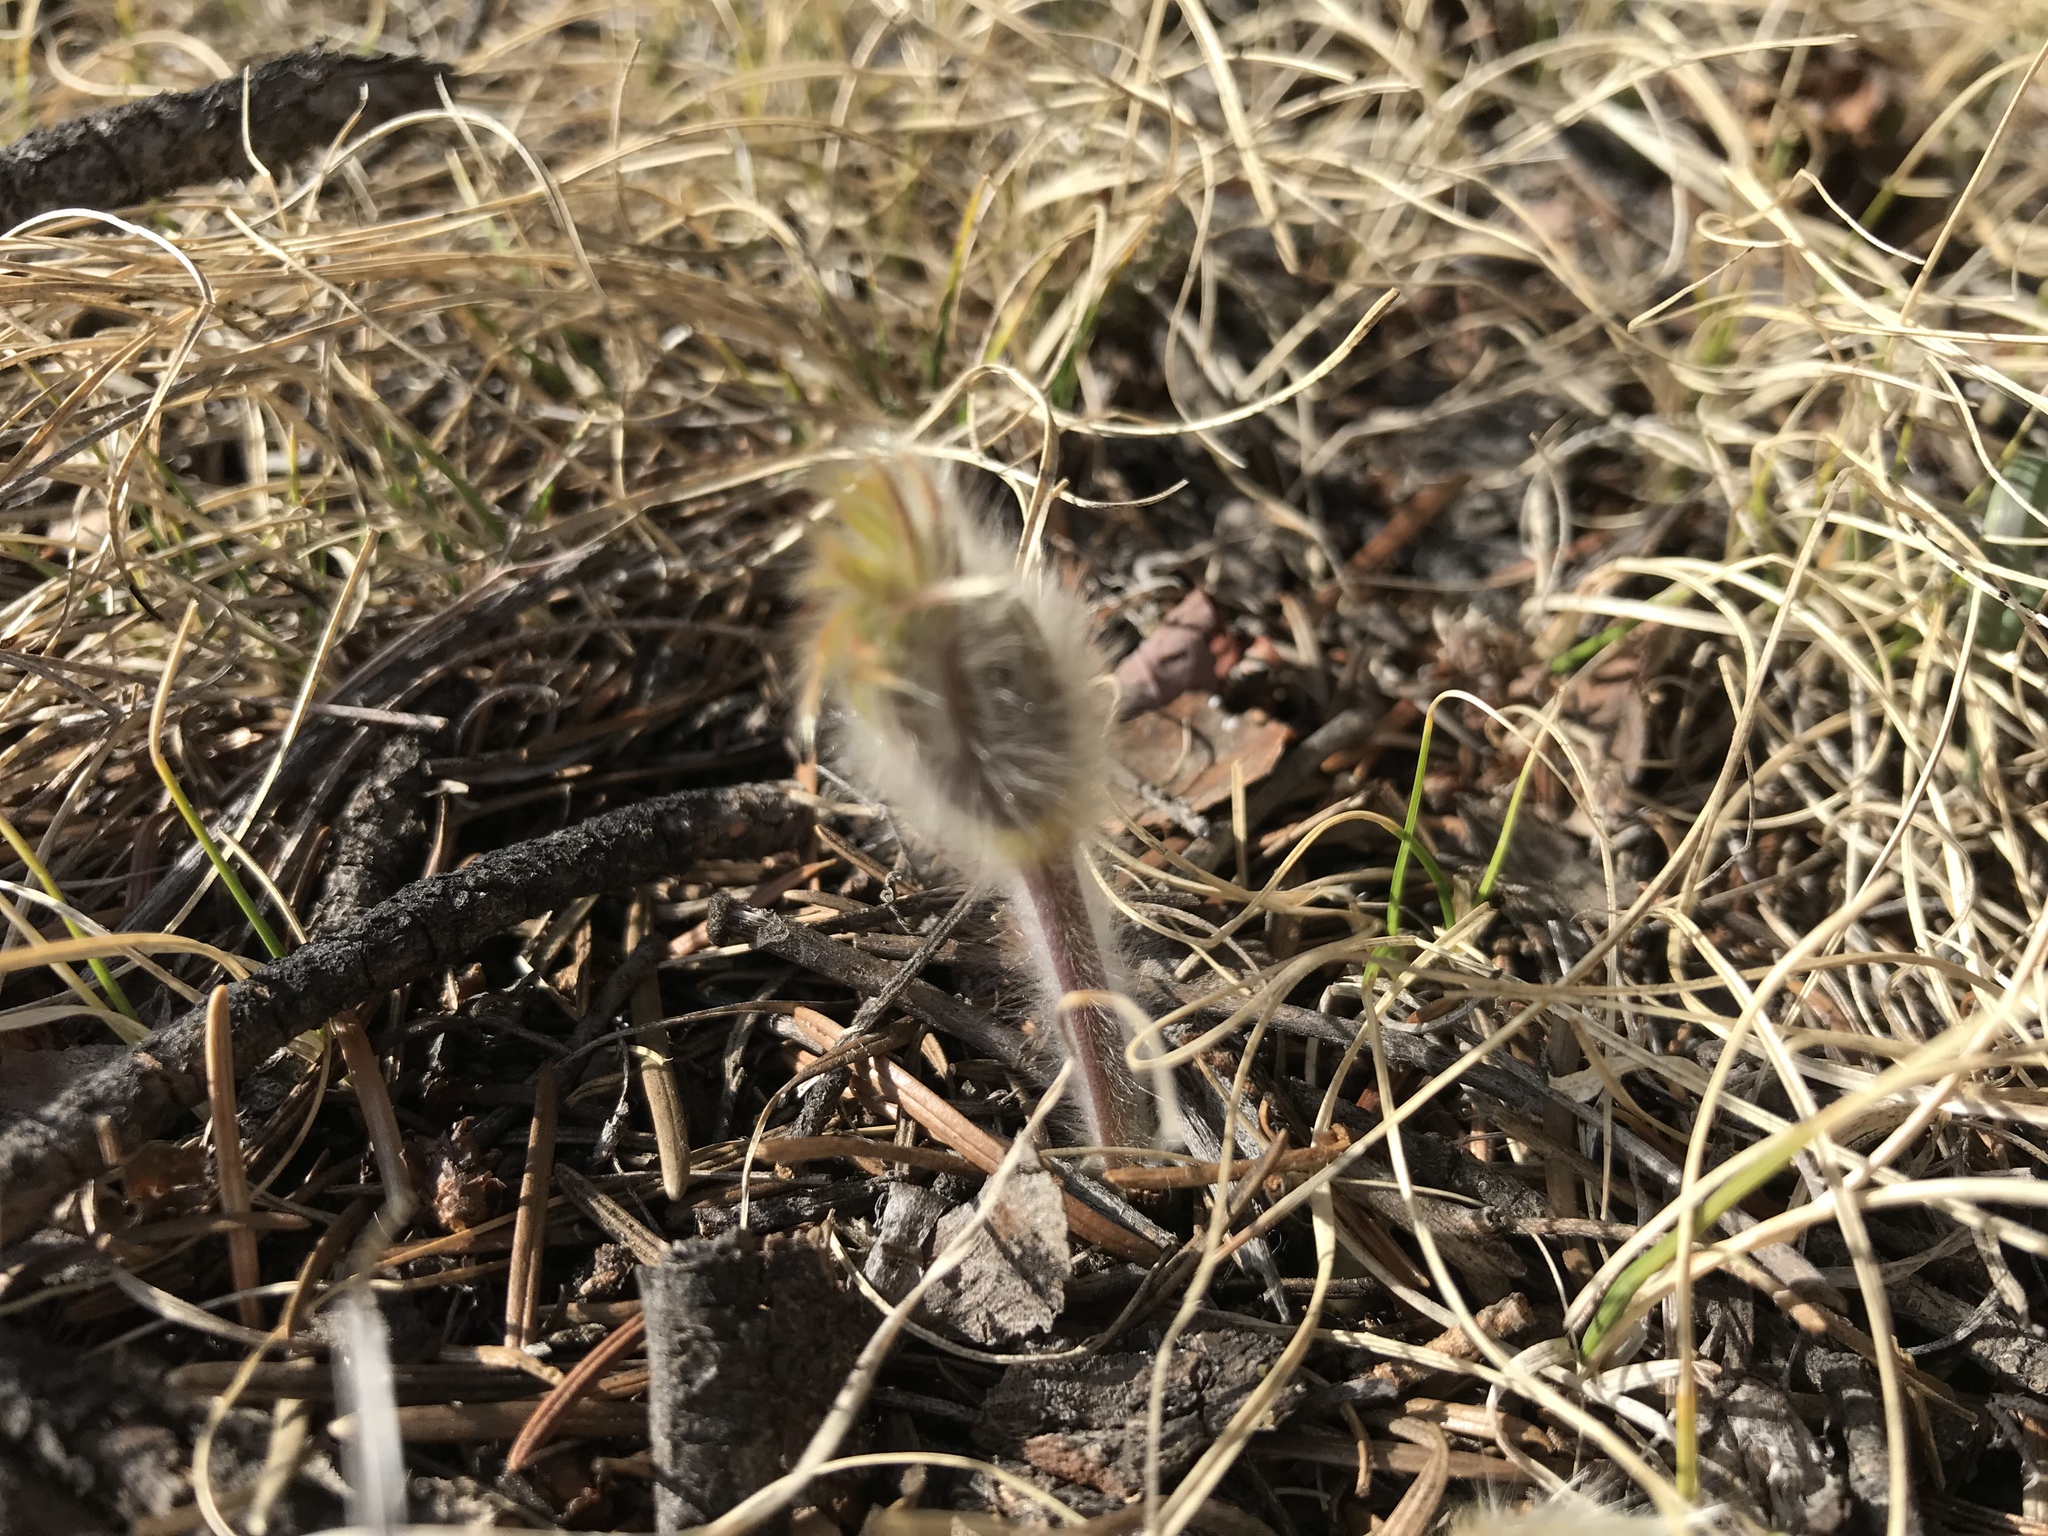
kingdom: Plantae
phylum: Tracheophyta
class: Magnoliopsida
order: Ranunculales
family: Ranunculaceae
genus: Pulsatilla
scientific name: Pulsatilla nuttalliana
